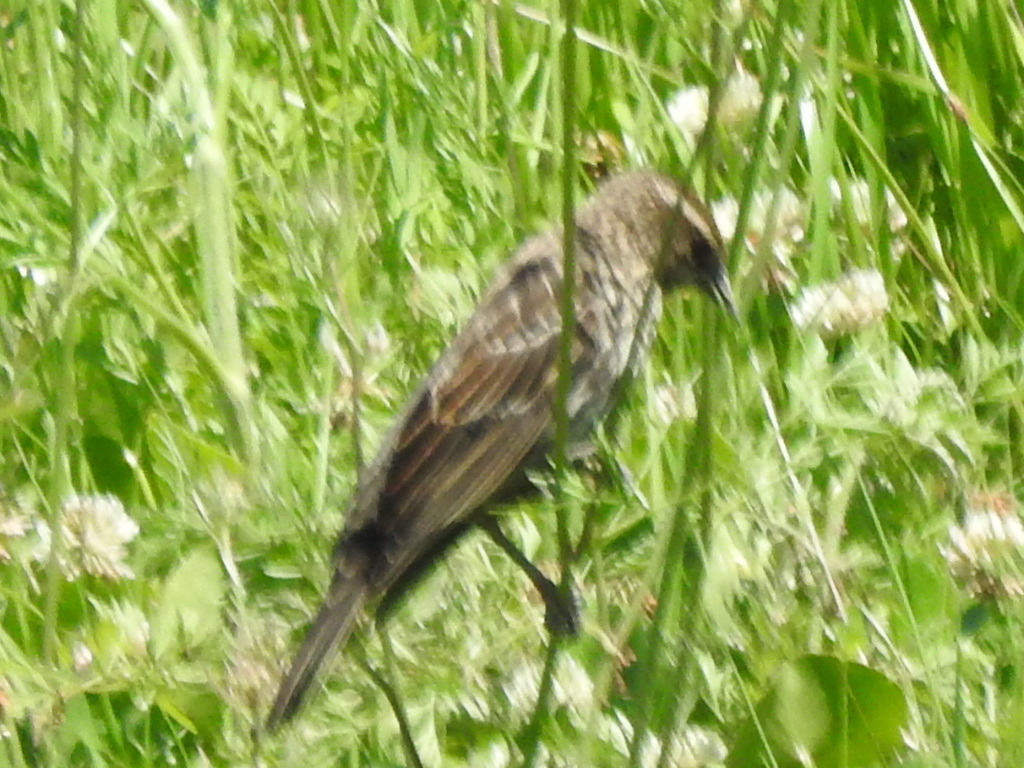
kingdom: Animalia
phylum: Chordata
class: Aves
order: Passeriformes
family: Icteridae
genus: Agelaius
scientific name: Agelaius phoeniceus
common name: Red-winged blackbird
